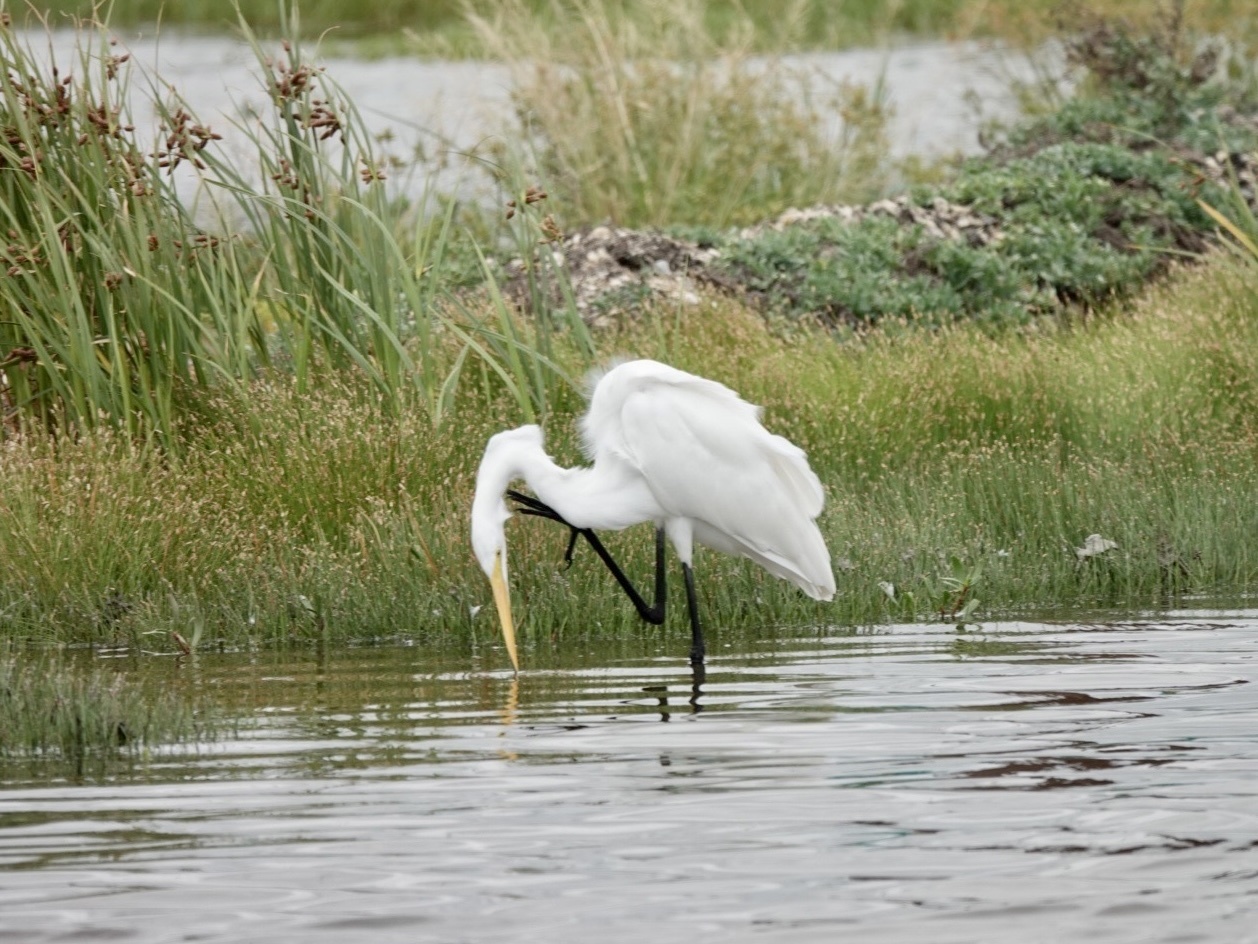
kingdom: Animalia
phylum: Chordata
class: Aves
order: Pelecaniformes
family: Ardeidae
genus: Ardea
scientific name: Ardea alba
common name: Great egret
